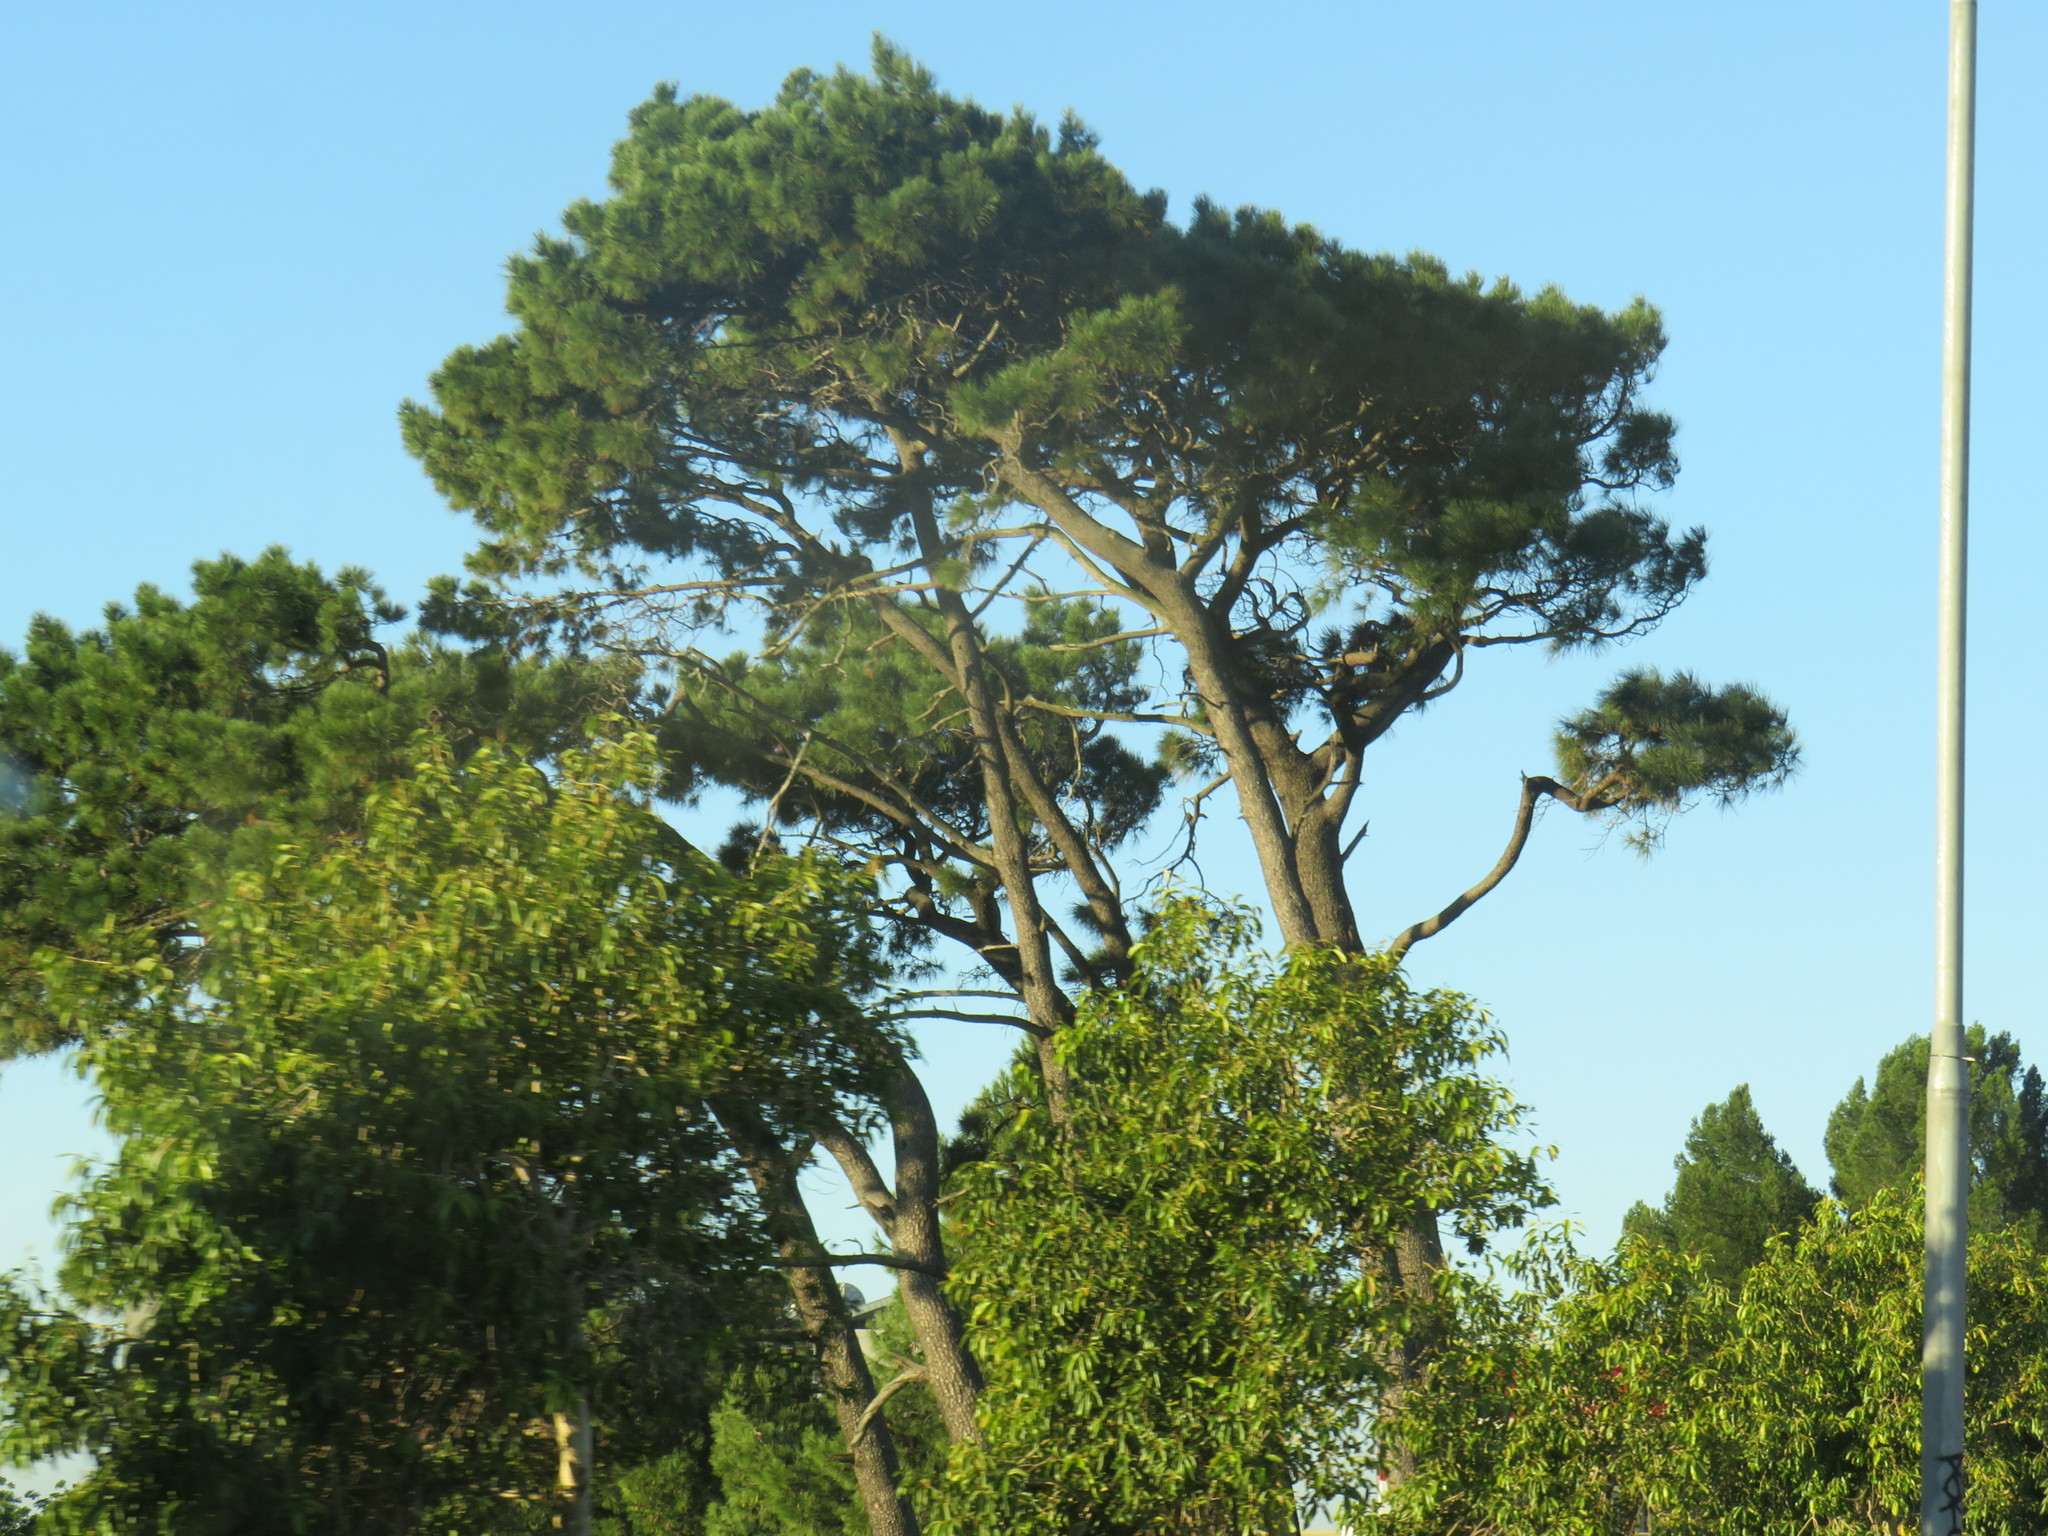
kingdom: Plantae
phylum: Tracheophyta
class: Pinopsida
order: Pinales
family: Pinaceae
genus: Pinus
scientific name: Pinus pinaster
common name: Maritime pine
